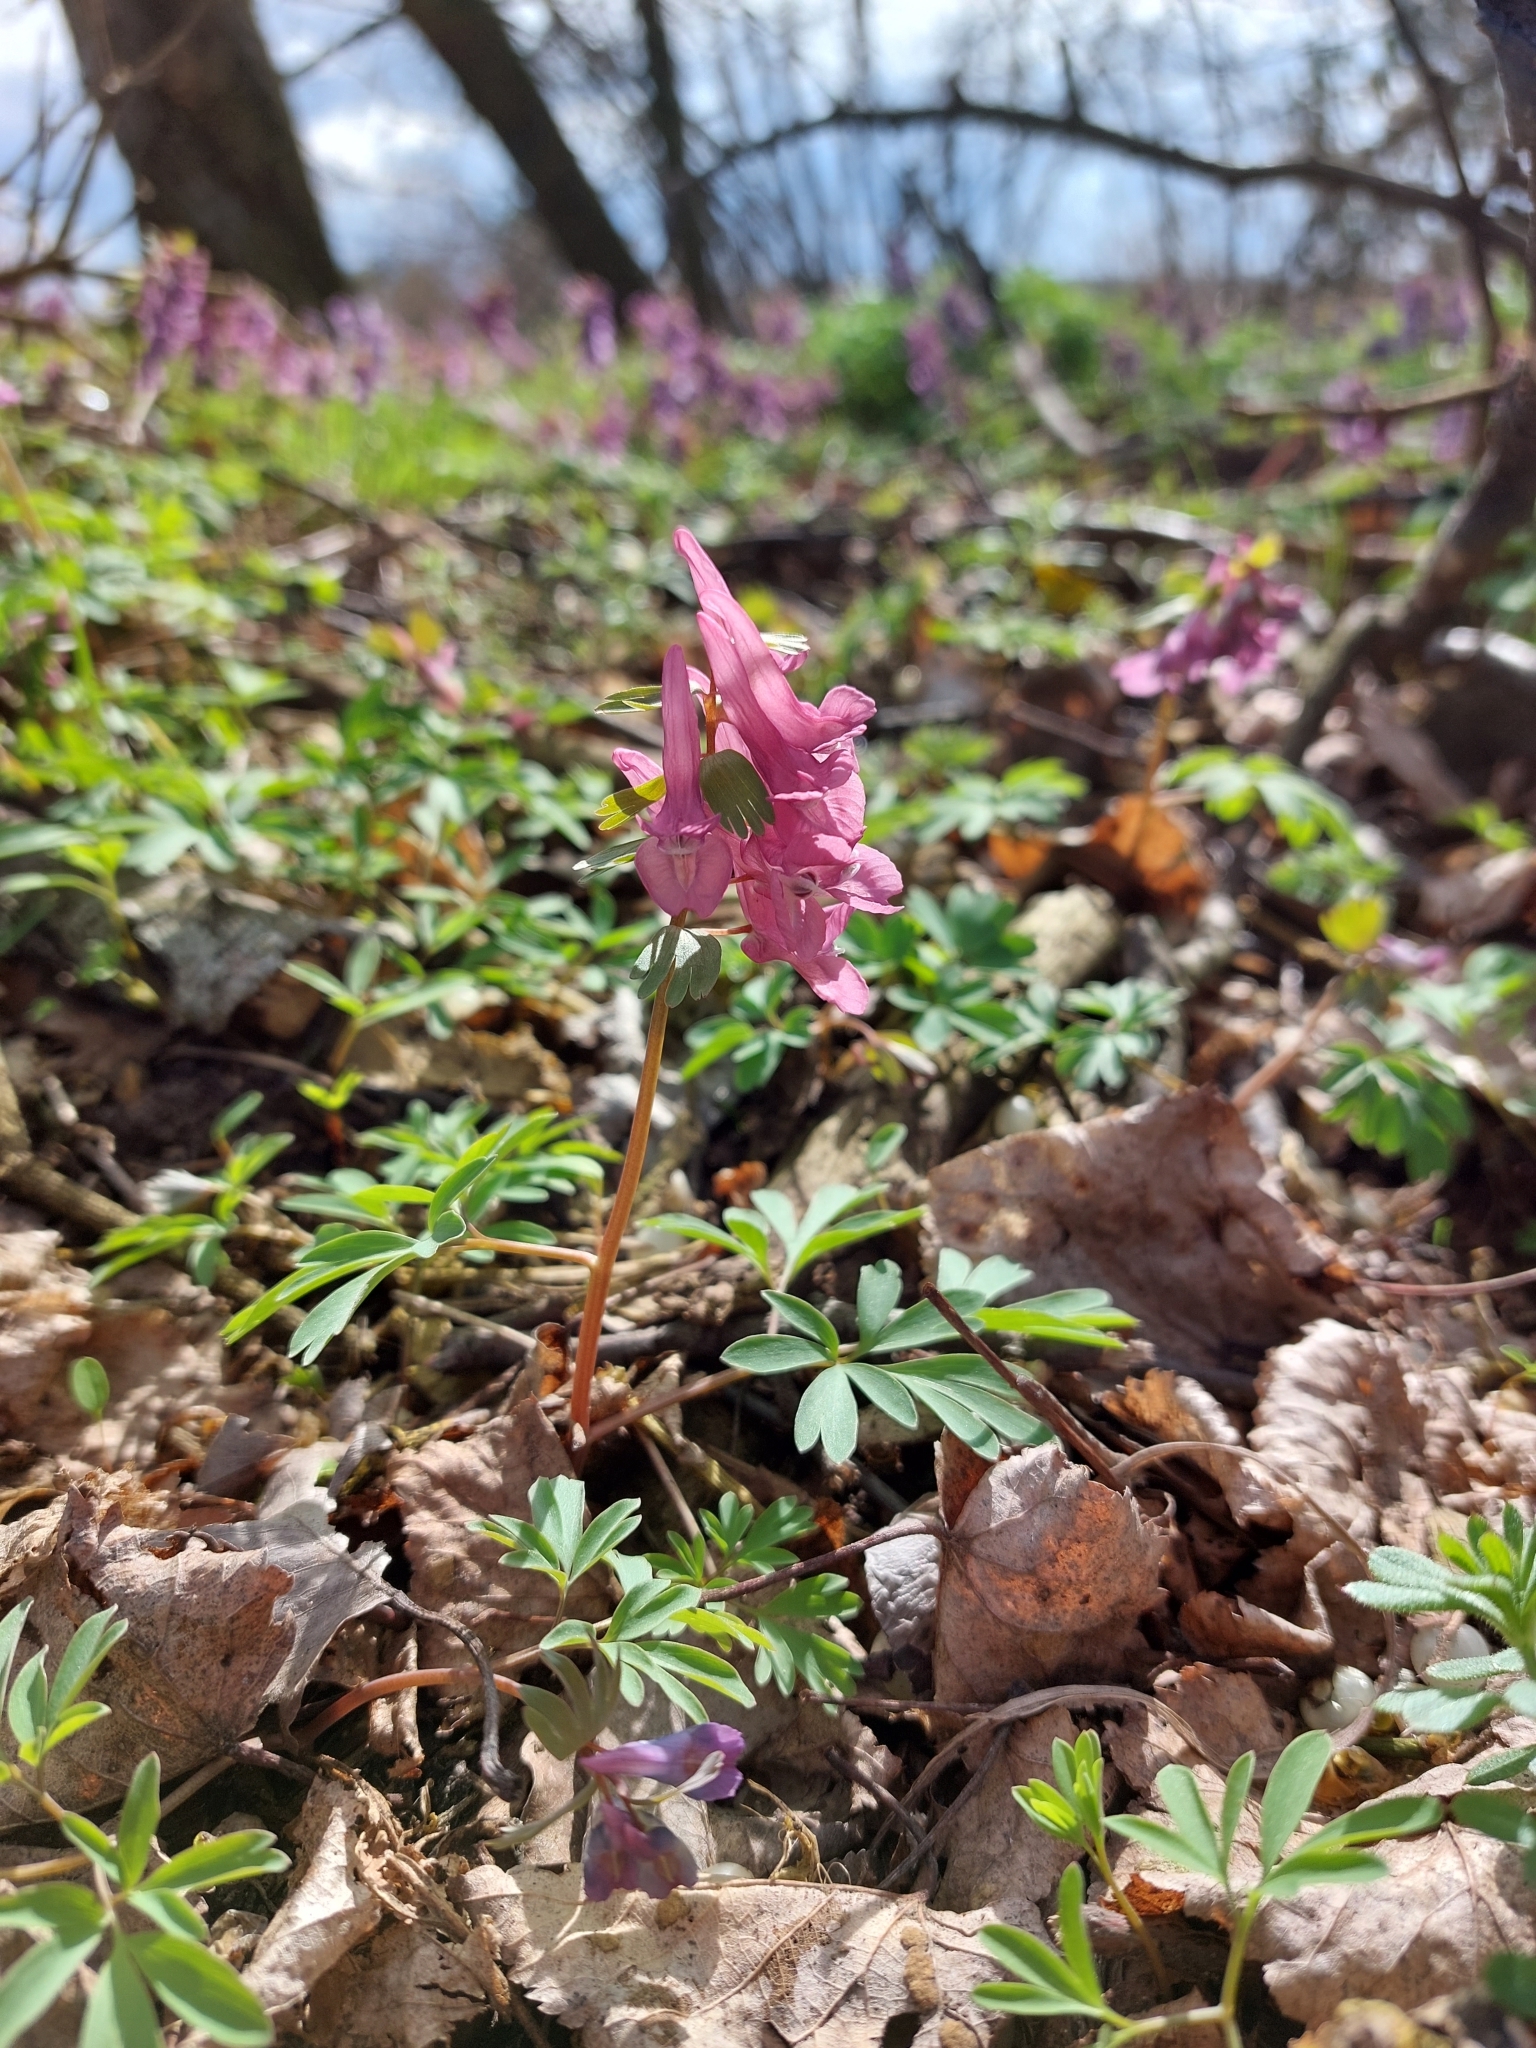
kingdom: Plantae
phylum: Tracheophyta
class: Magnoliopsida
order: Ranunculales
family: Papaveraceae
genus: Corydalis
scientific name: Corydalis solida
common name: Bird-in-a-bush
